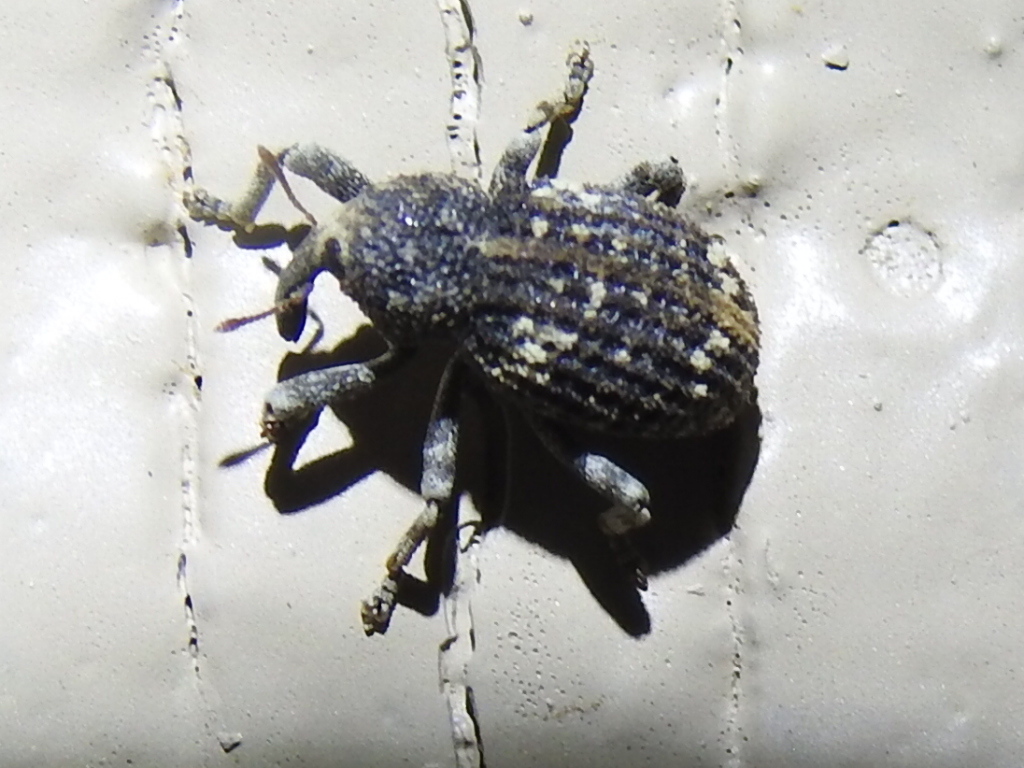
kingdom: Animalia
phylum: Arthropoda
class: Insecta
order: Coleoptera
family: Curculionidae
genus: Gerstaeckeria
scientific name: Gerstaeckeria doddi
